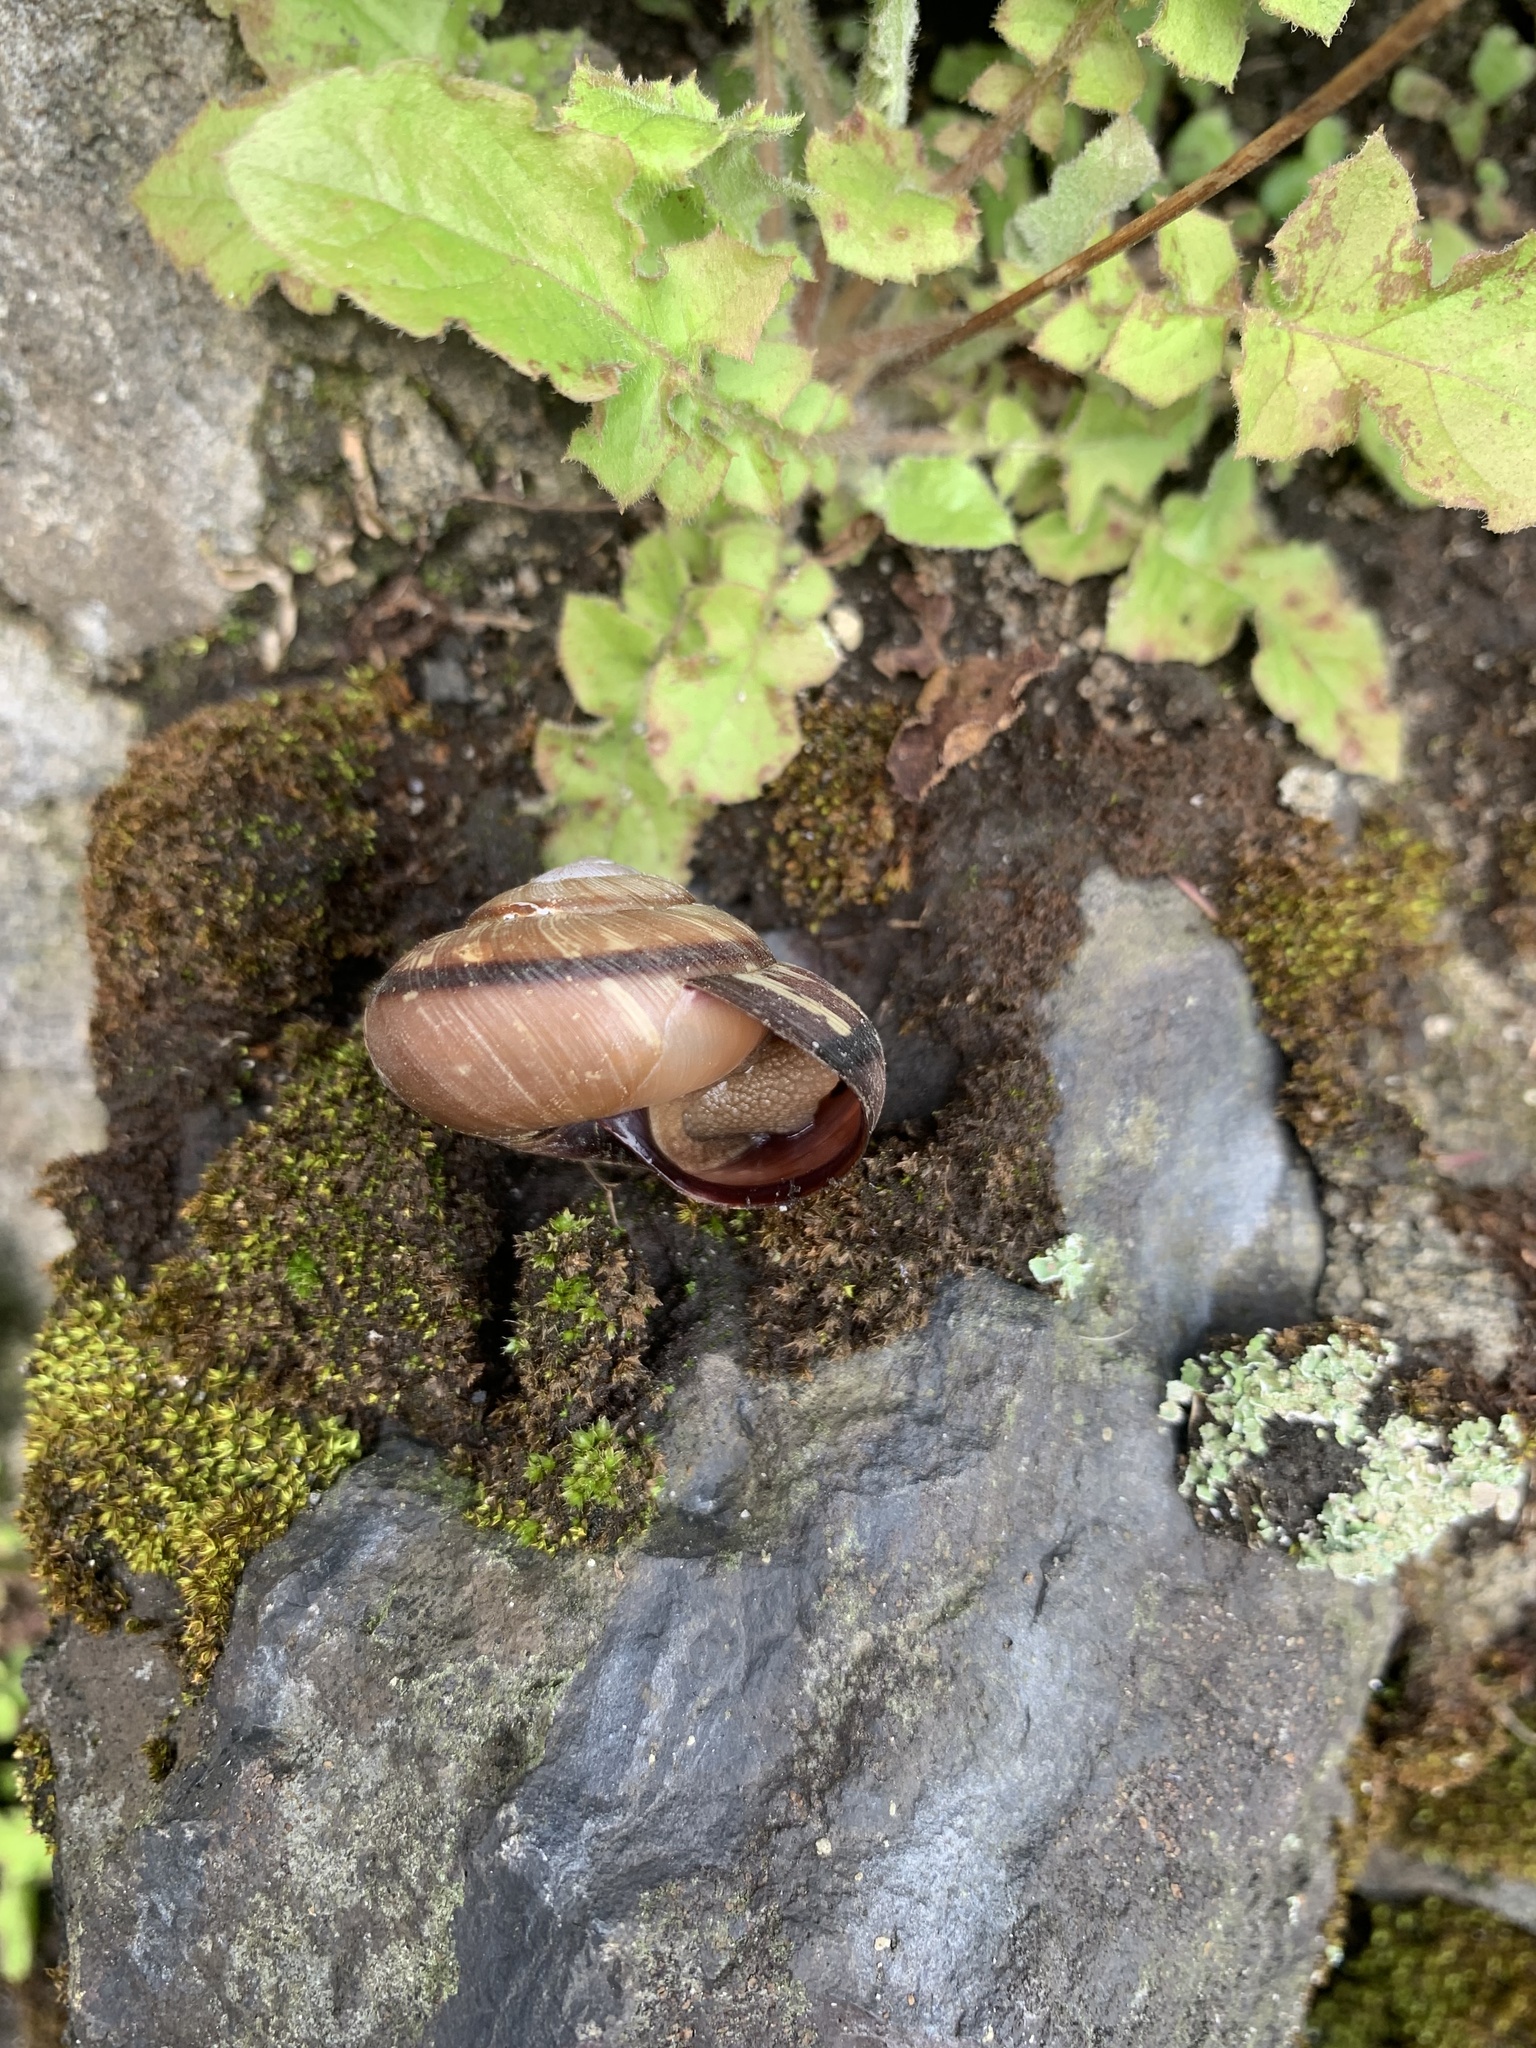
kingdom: Animalia
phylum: Mollusca
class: Gastropoda
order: Stylommatophora
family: Camaenidae
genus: Euhadra
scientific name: Euhadra peliomphala
